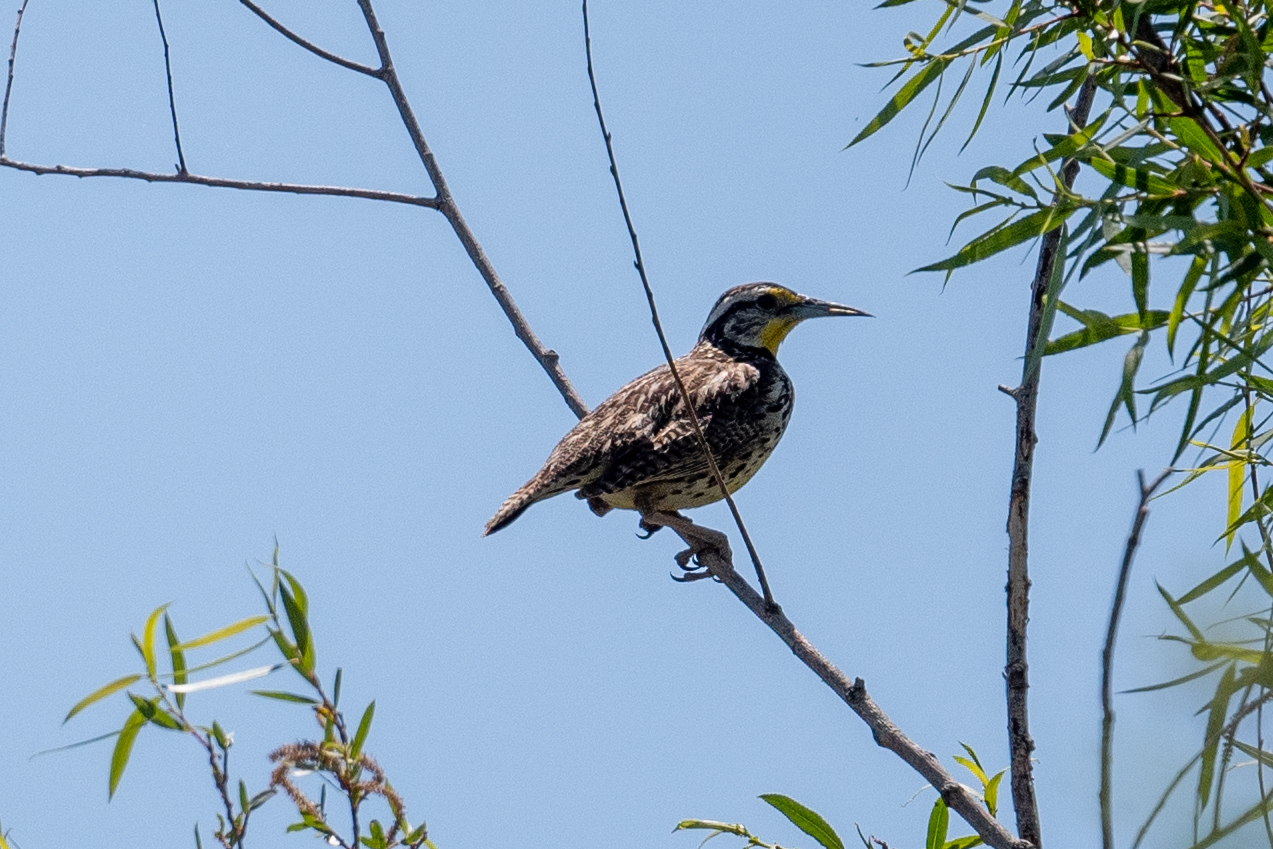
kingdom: Animalia
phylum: Chordata
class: Aves
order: Passeriformes
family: Icteridae
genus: Sturnella
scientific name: Sturnella neglecta
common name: Western meadowlark
